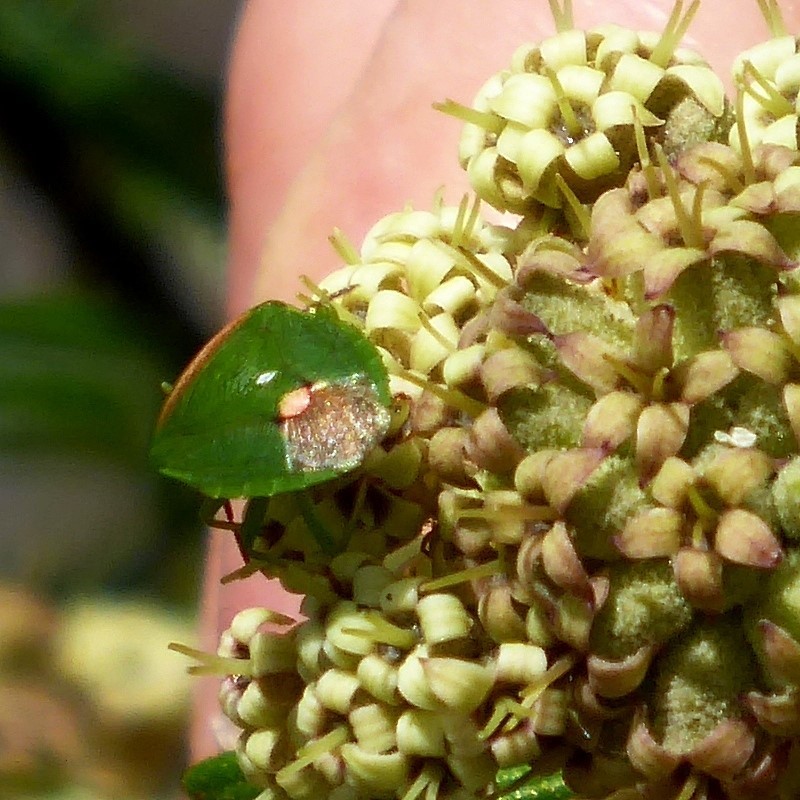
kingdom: Animalia
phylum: Arthropoda
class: Insecta
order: Hemiptera
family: Pentatomidae
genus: Ocirrhoe
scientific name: Ocirrhoe
